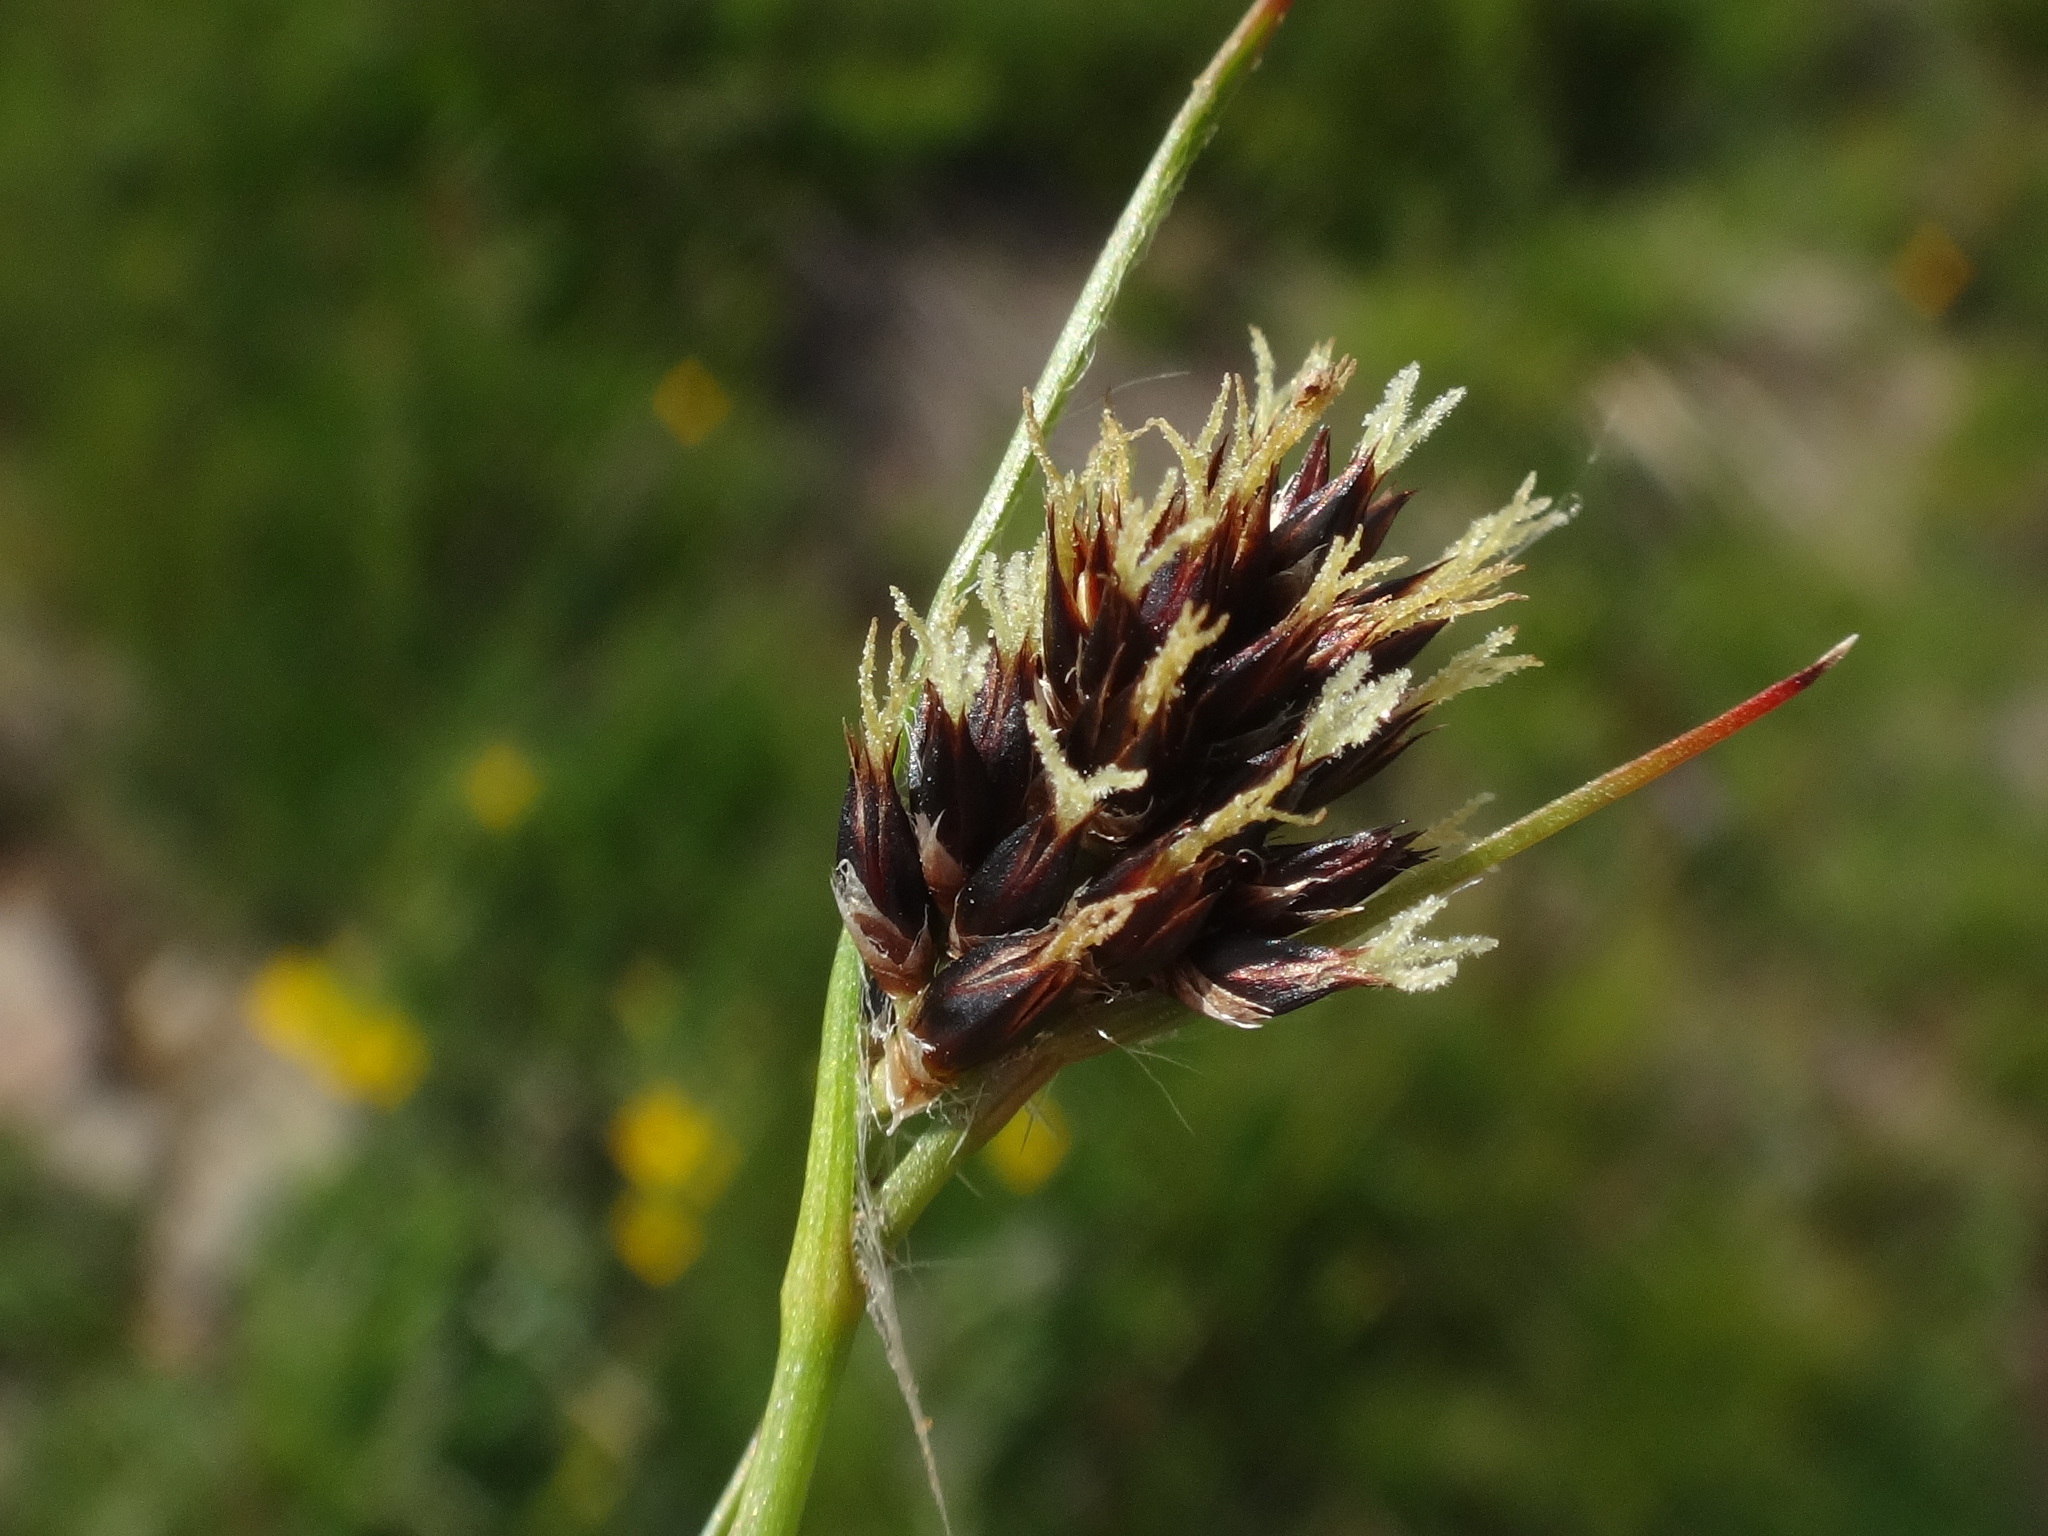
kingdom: Plantae
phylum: Tracheophyta
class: Liliopsida
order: Poales
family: Juncaceae
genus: Luzula
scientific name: Luzula alpina
